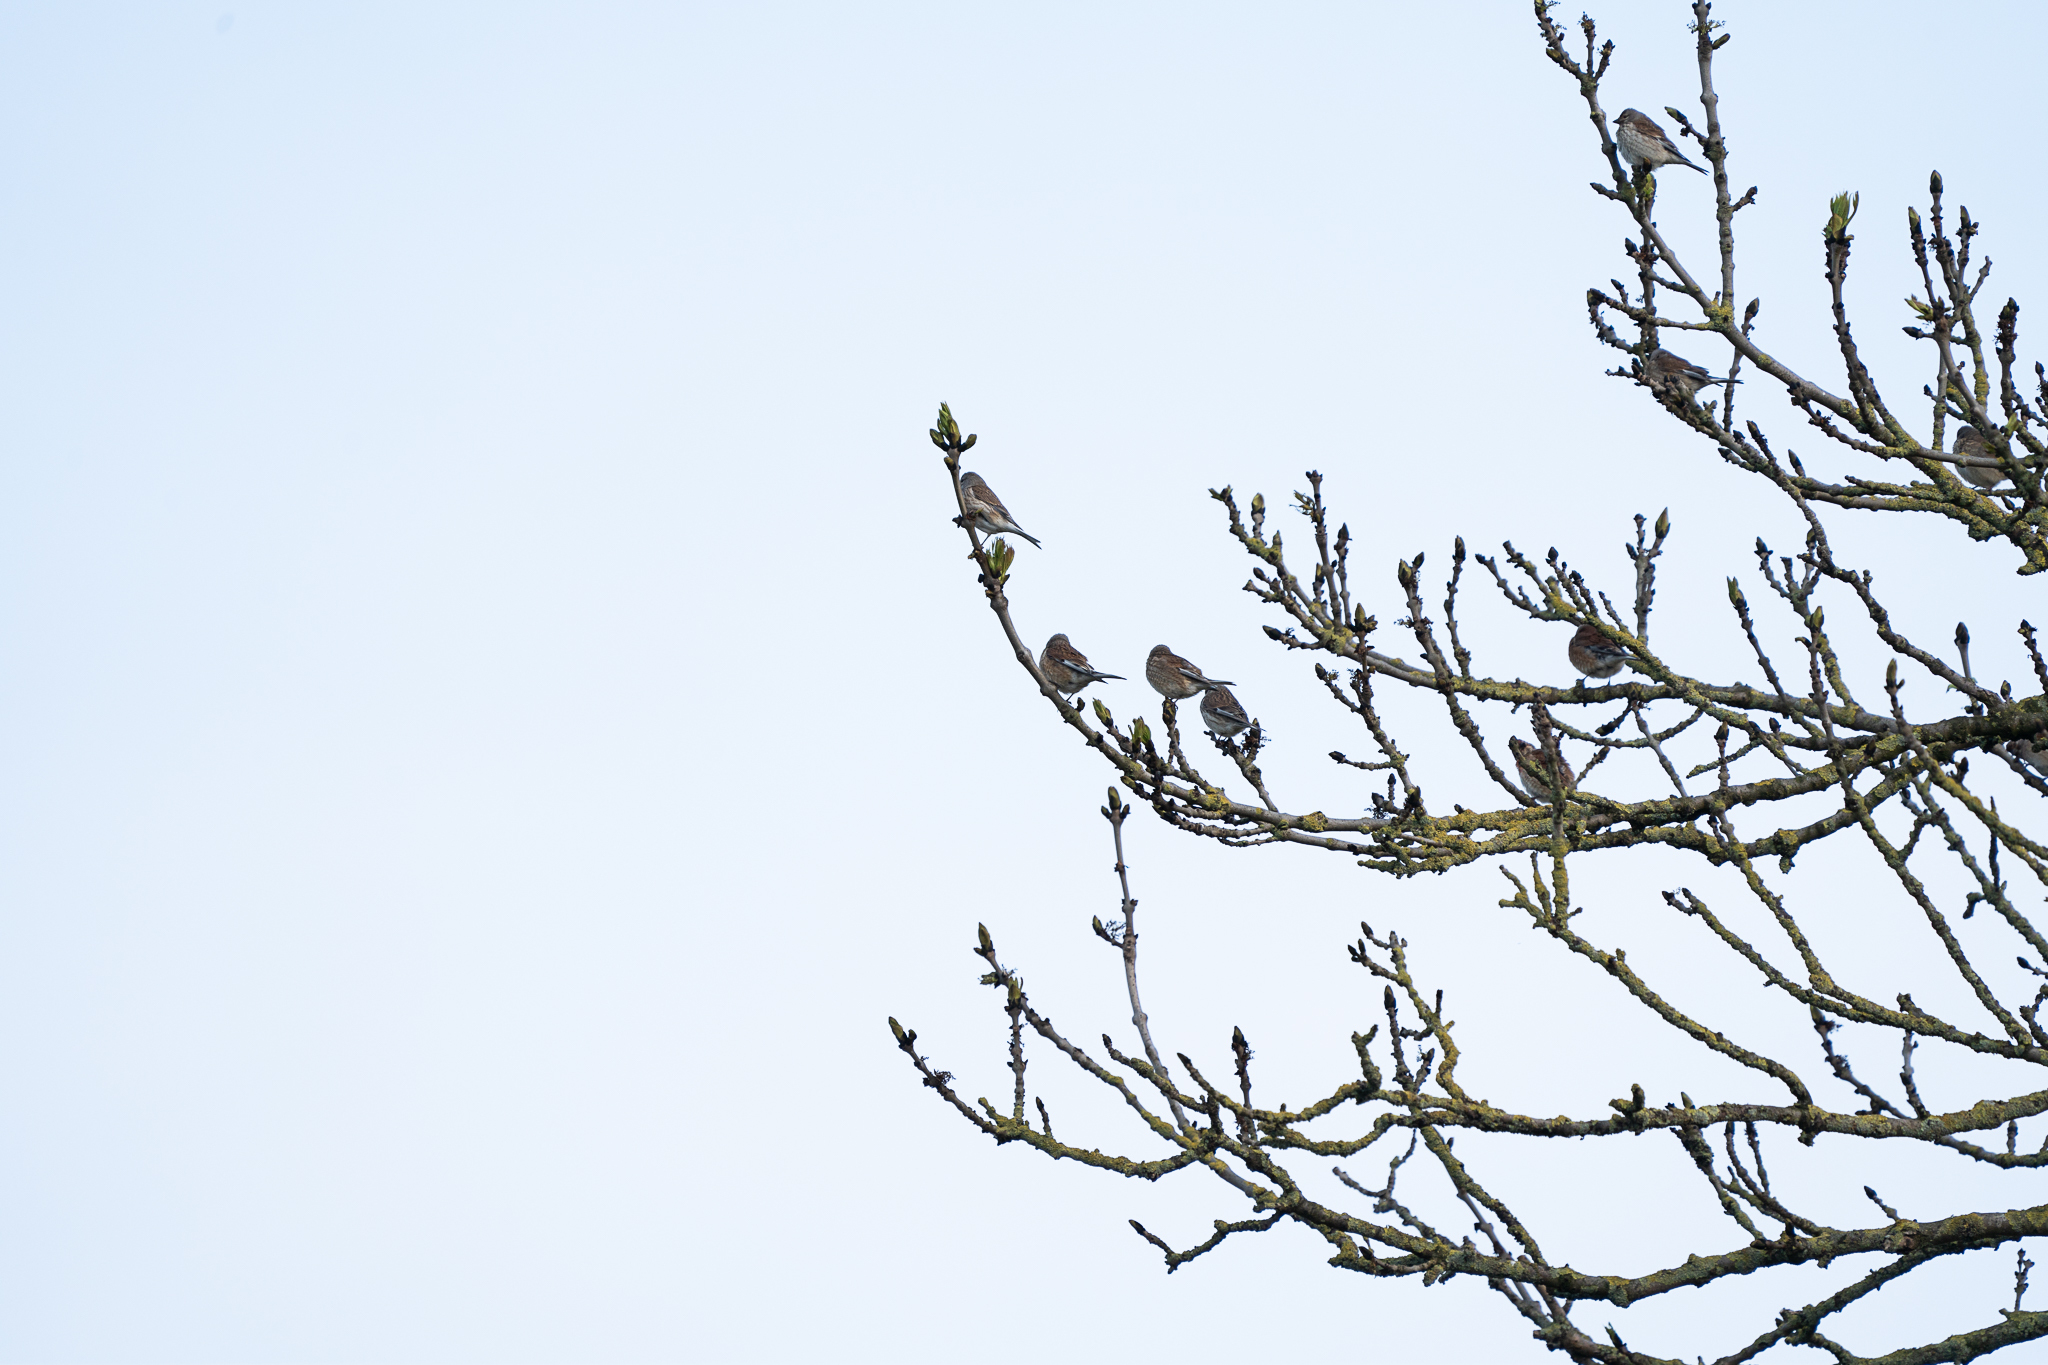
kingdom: Animalia
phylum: Chordata
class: Aves
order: Passeriformes
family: Fringillidae
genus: Linaria
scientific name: Linaria cannabina
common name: Common linnet
